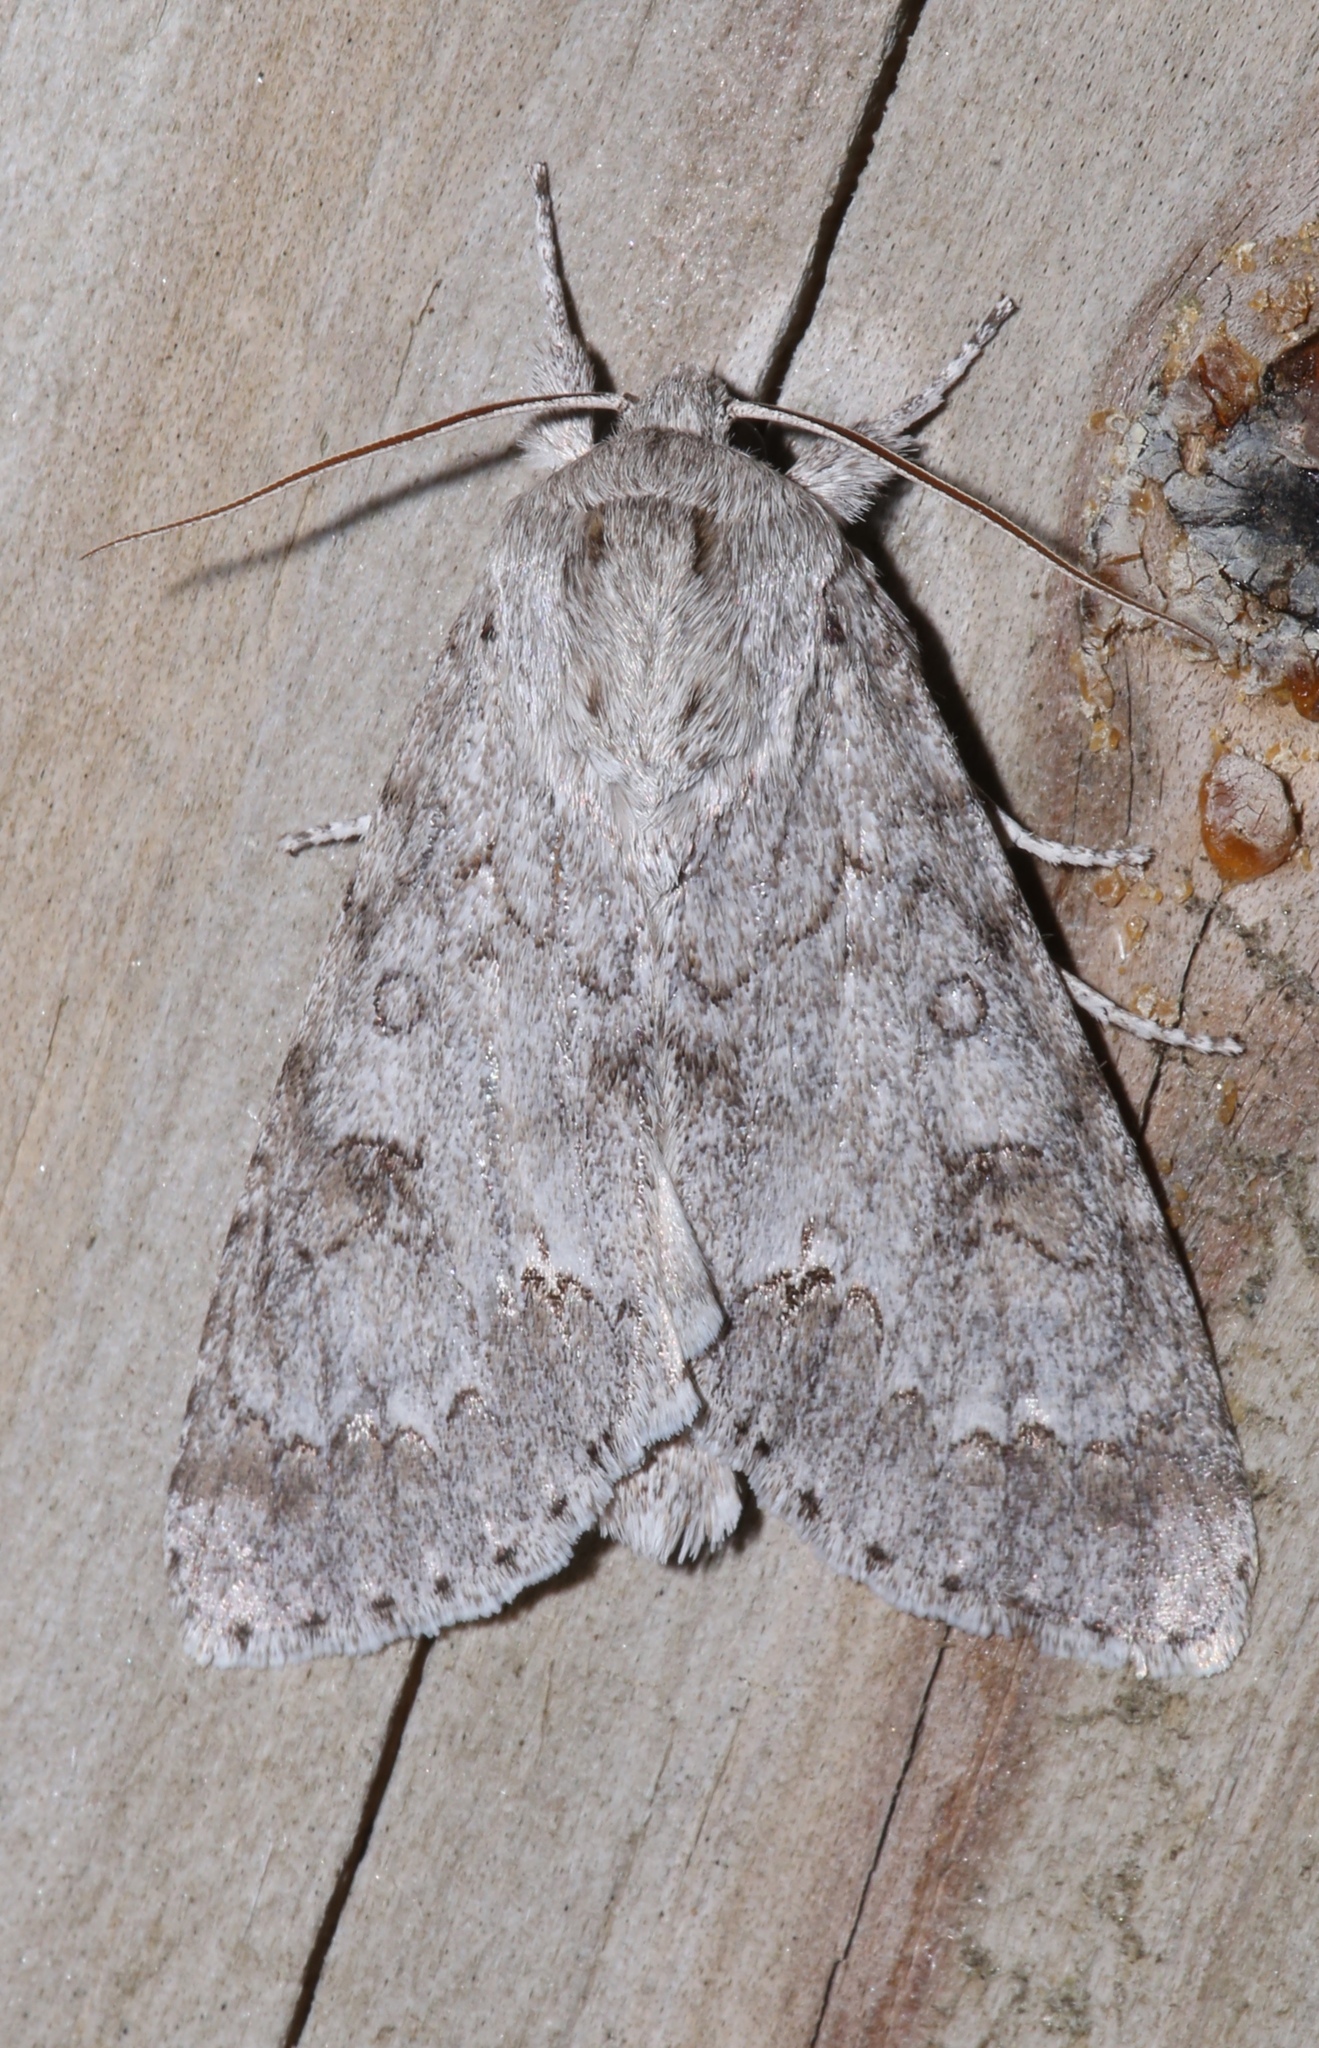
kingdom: Animalia
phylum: Arthropoda
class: Insecta
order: Lepidoptera
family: Noctuidae
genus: Acronicta
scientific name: Acronicta insita
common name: Large gray dagger
